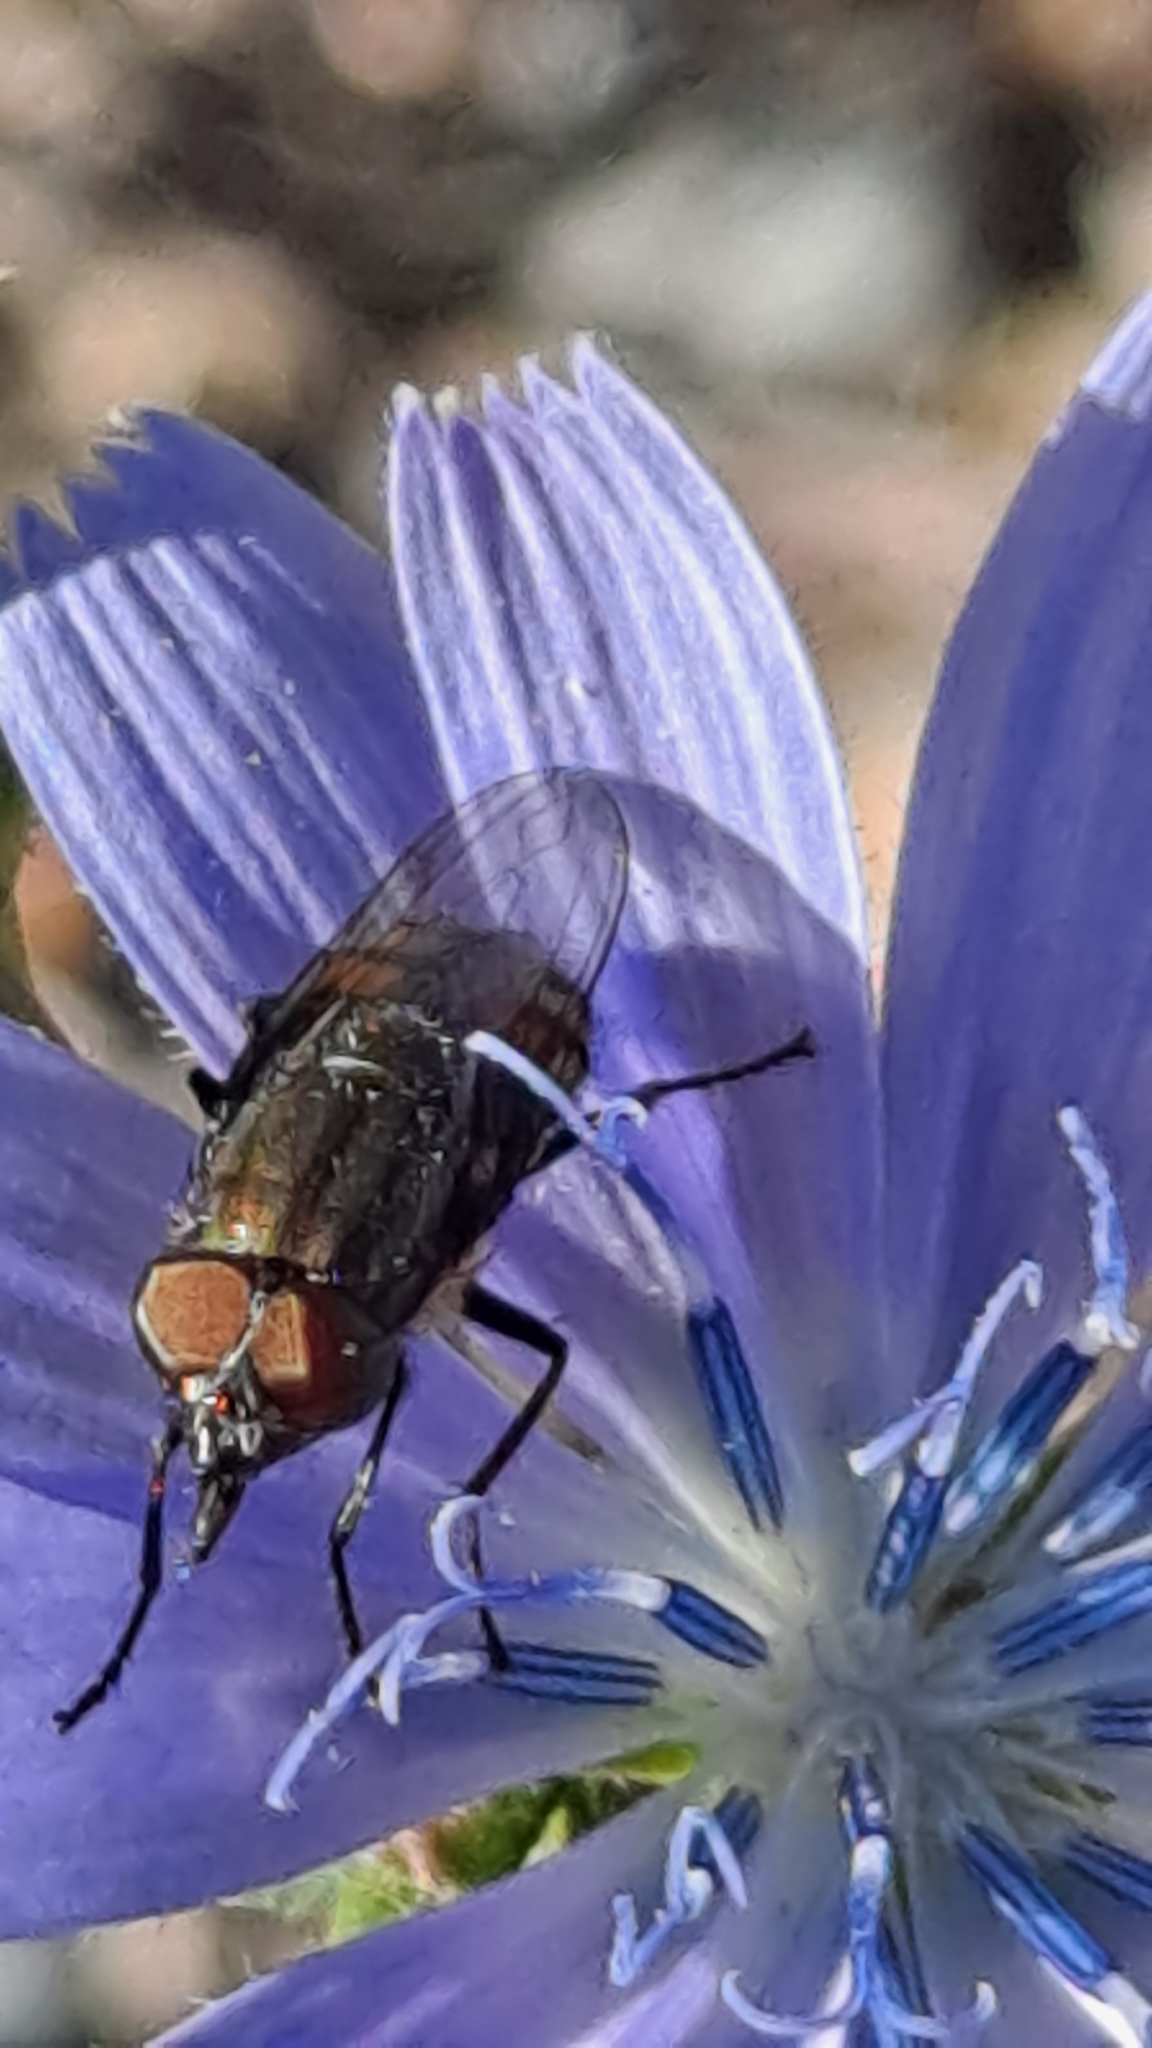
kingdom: Animalia
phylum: Arthropoda
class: Insecta
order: Diptera
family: Calliphoridae
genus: Stomorhina
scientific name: Stomorhina lunata
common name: Locust blowfly
